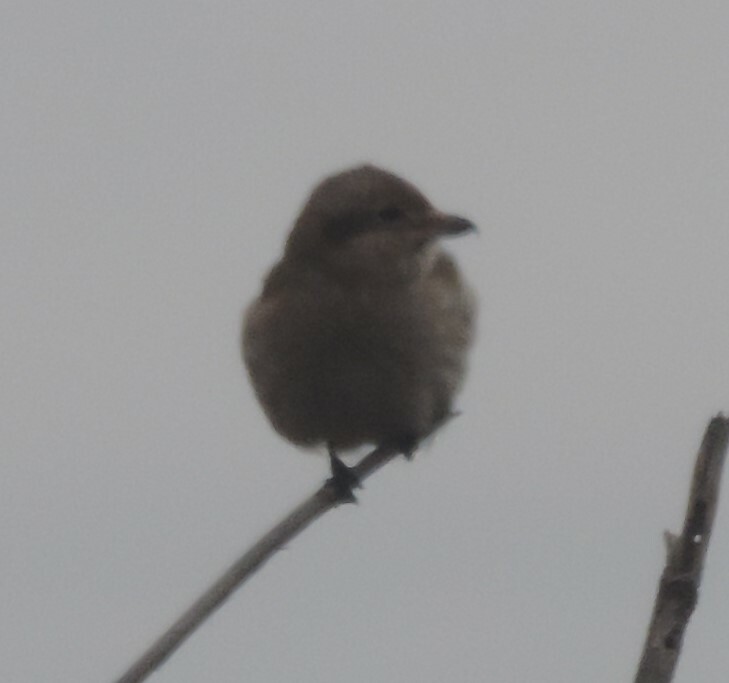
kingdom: Animalia
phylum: Chordata
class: Aves
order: Passeriformes
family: Laniidae
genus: Lanius
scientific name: Lanius borealis
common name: Northern shrike
